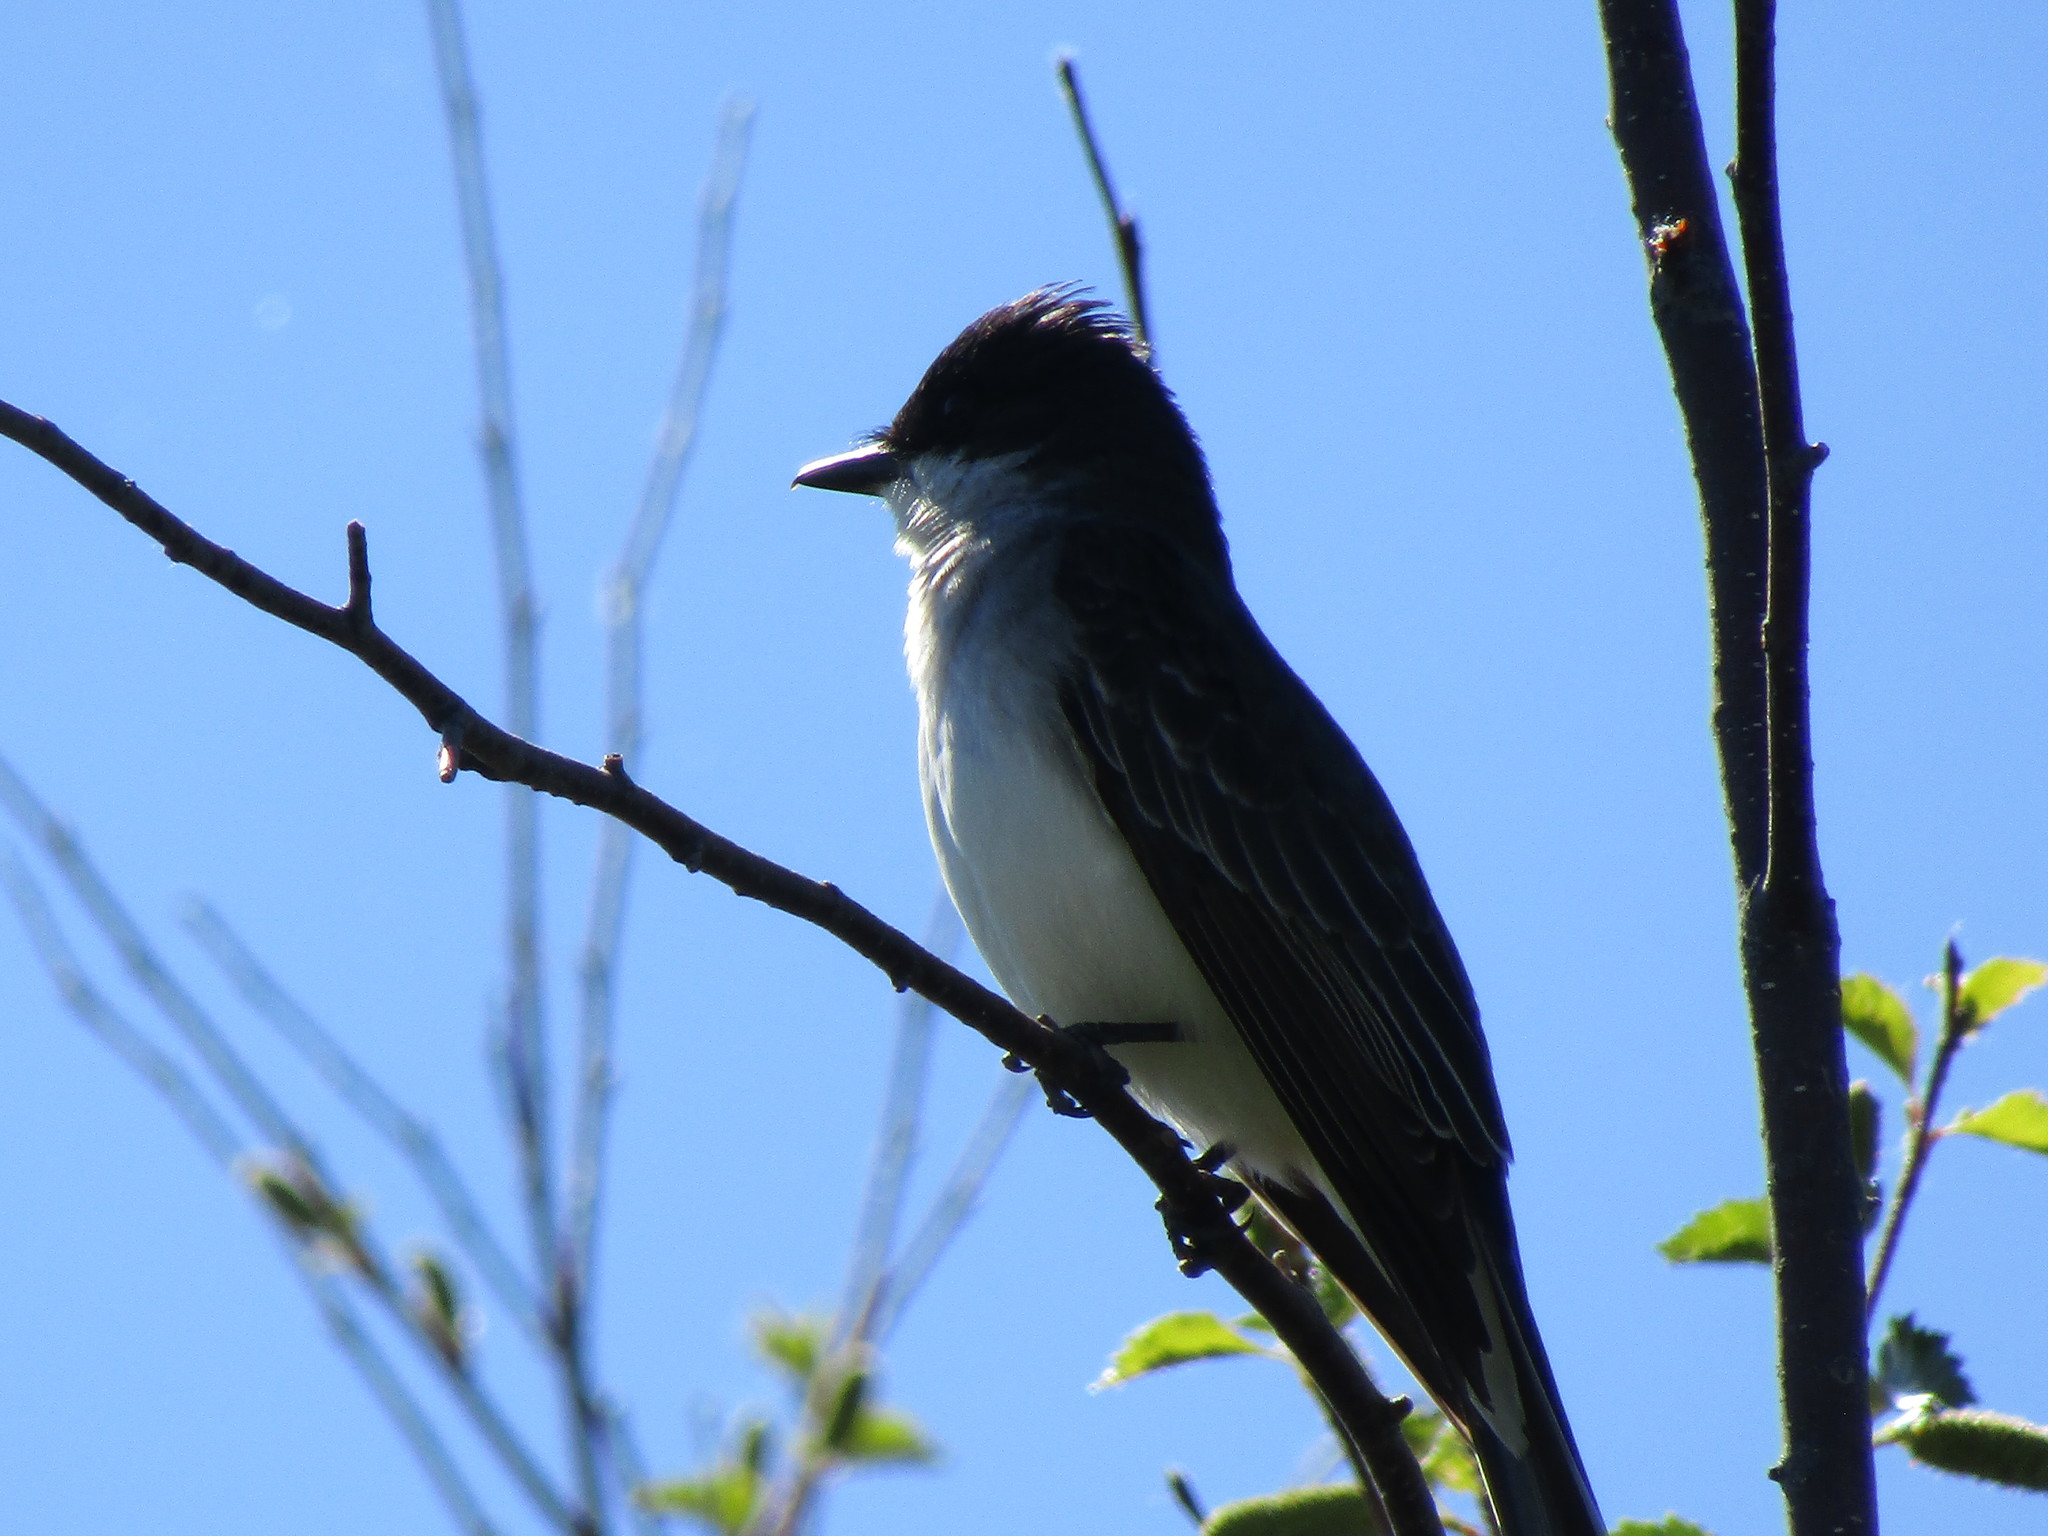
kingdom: Animalia
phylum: Chordata
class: Aves
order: Passeriformes
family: Tyrannidae
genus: Tyrannus
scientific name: Tyrannus tyrannus
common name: Eastern kingbird
